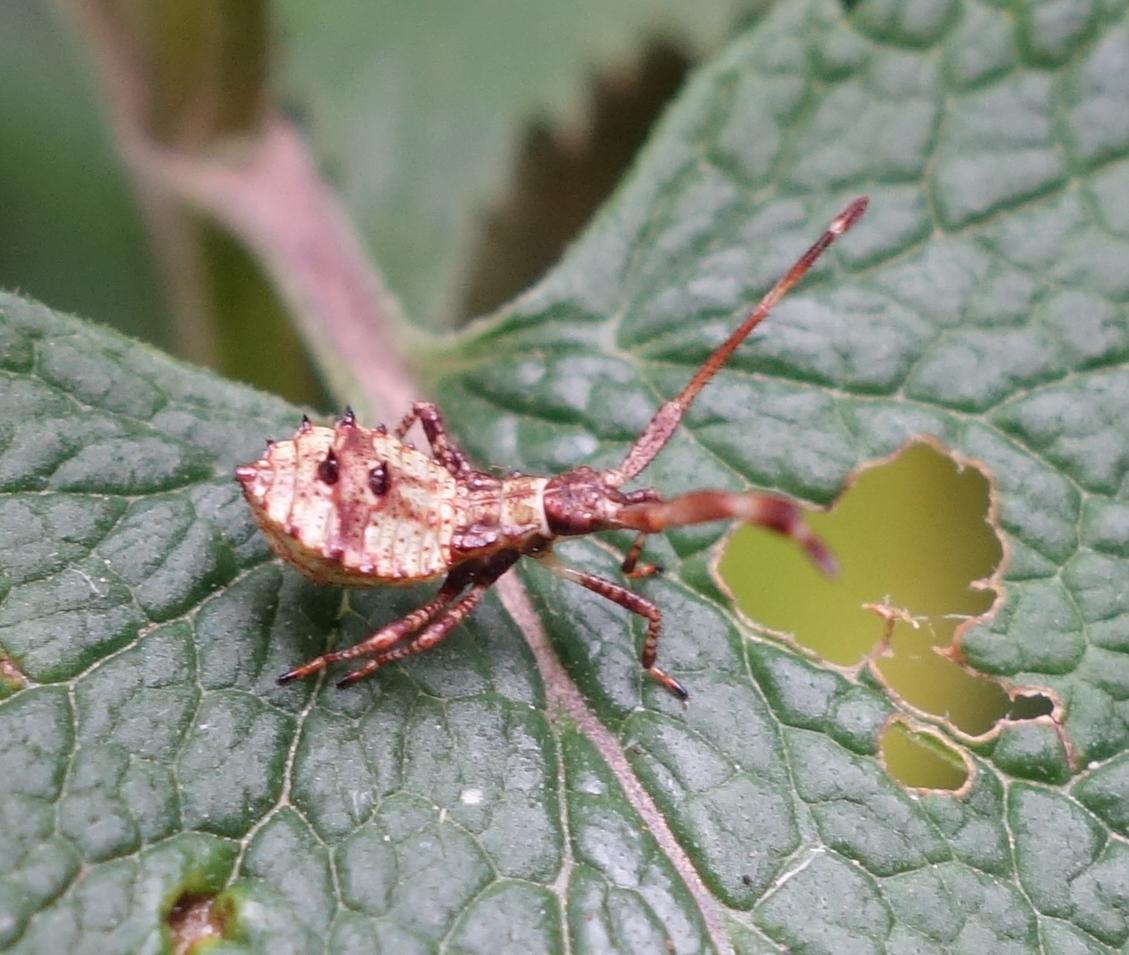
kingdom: Animalia
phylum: Arthropoda
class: Insecta
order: Hemiptera
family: Coreidae
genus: Coreus
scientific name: Coreus marginatus
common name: Dock bug
